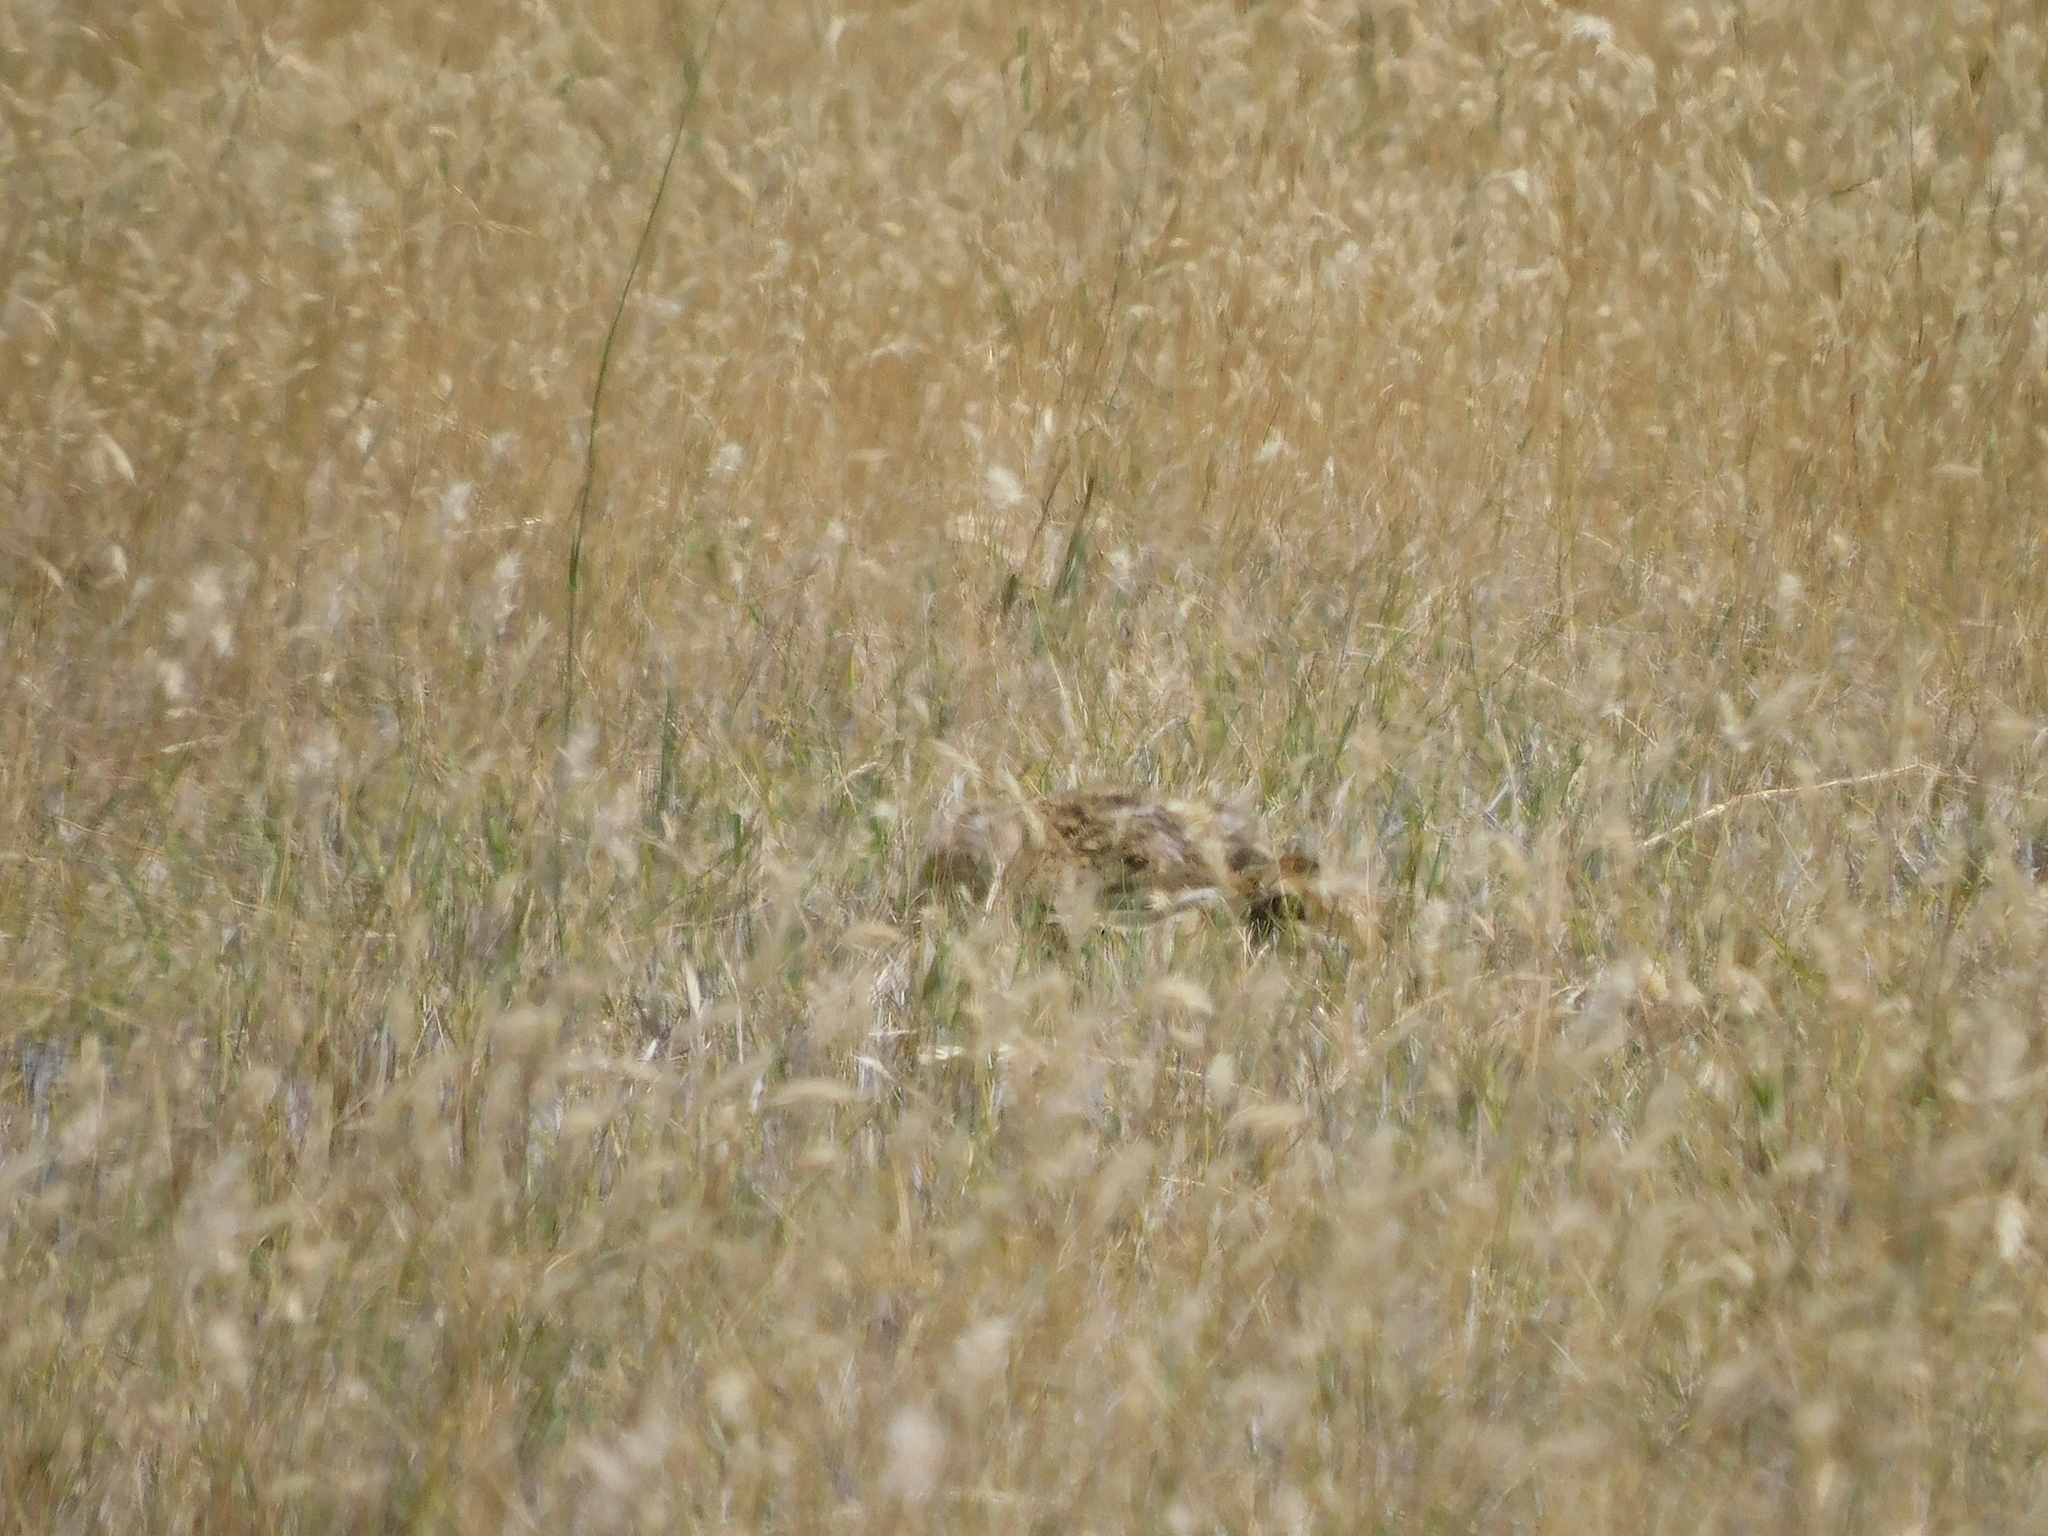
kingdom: Animalia
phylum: Chordata
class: Mammalia
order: Lagomorpha
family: Leporidae
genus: Lepus
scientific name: Lepus europaeus
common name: European hare
